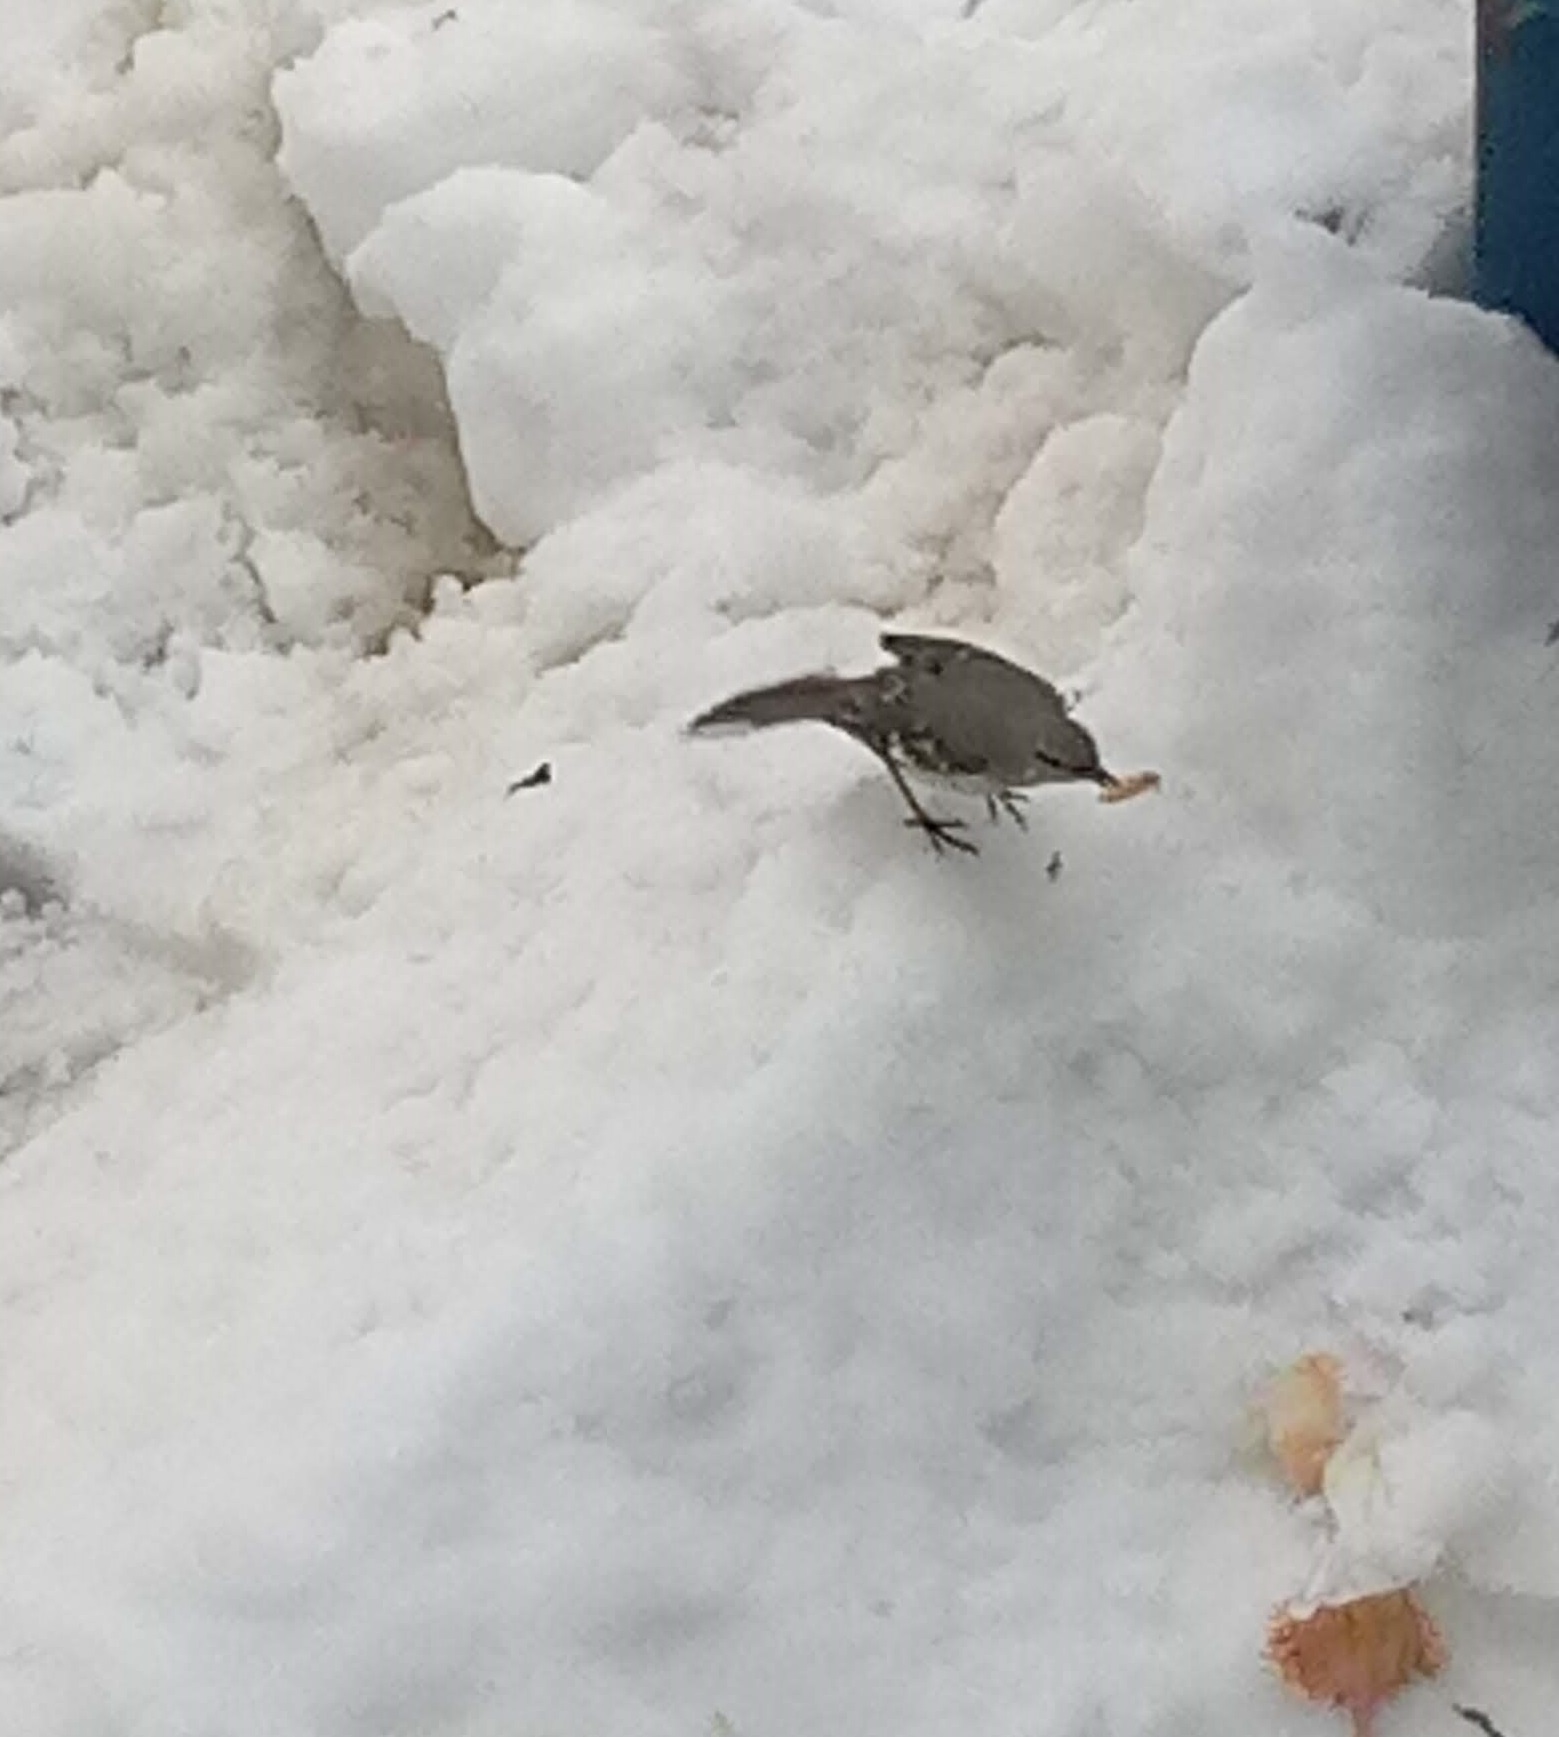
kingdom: Animalia
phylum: Chordata
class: Aves
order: Passeriformes
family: Mimidae
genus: Mimus
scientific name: Mimus polyglottos
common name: Northern mockingbird
